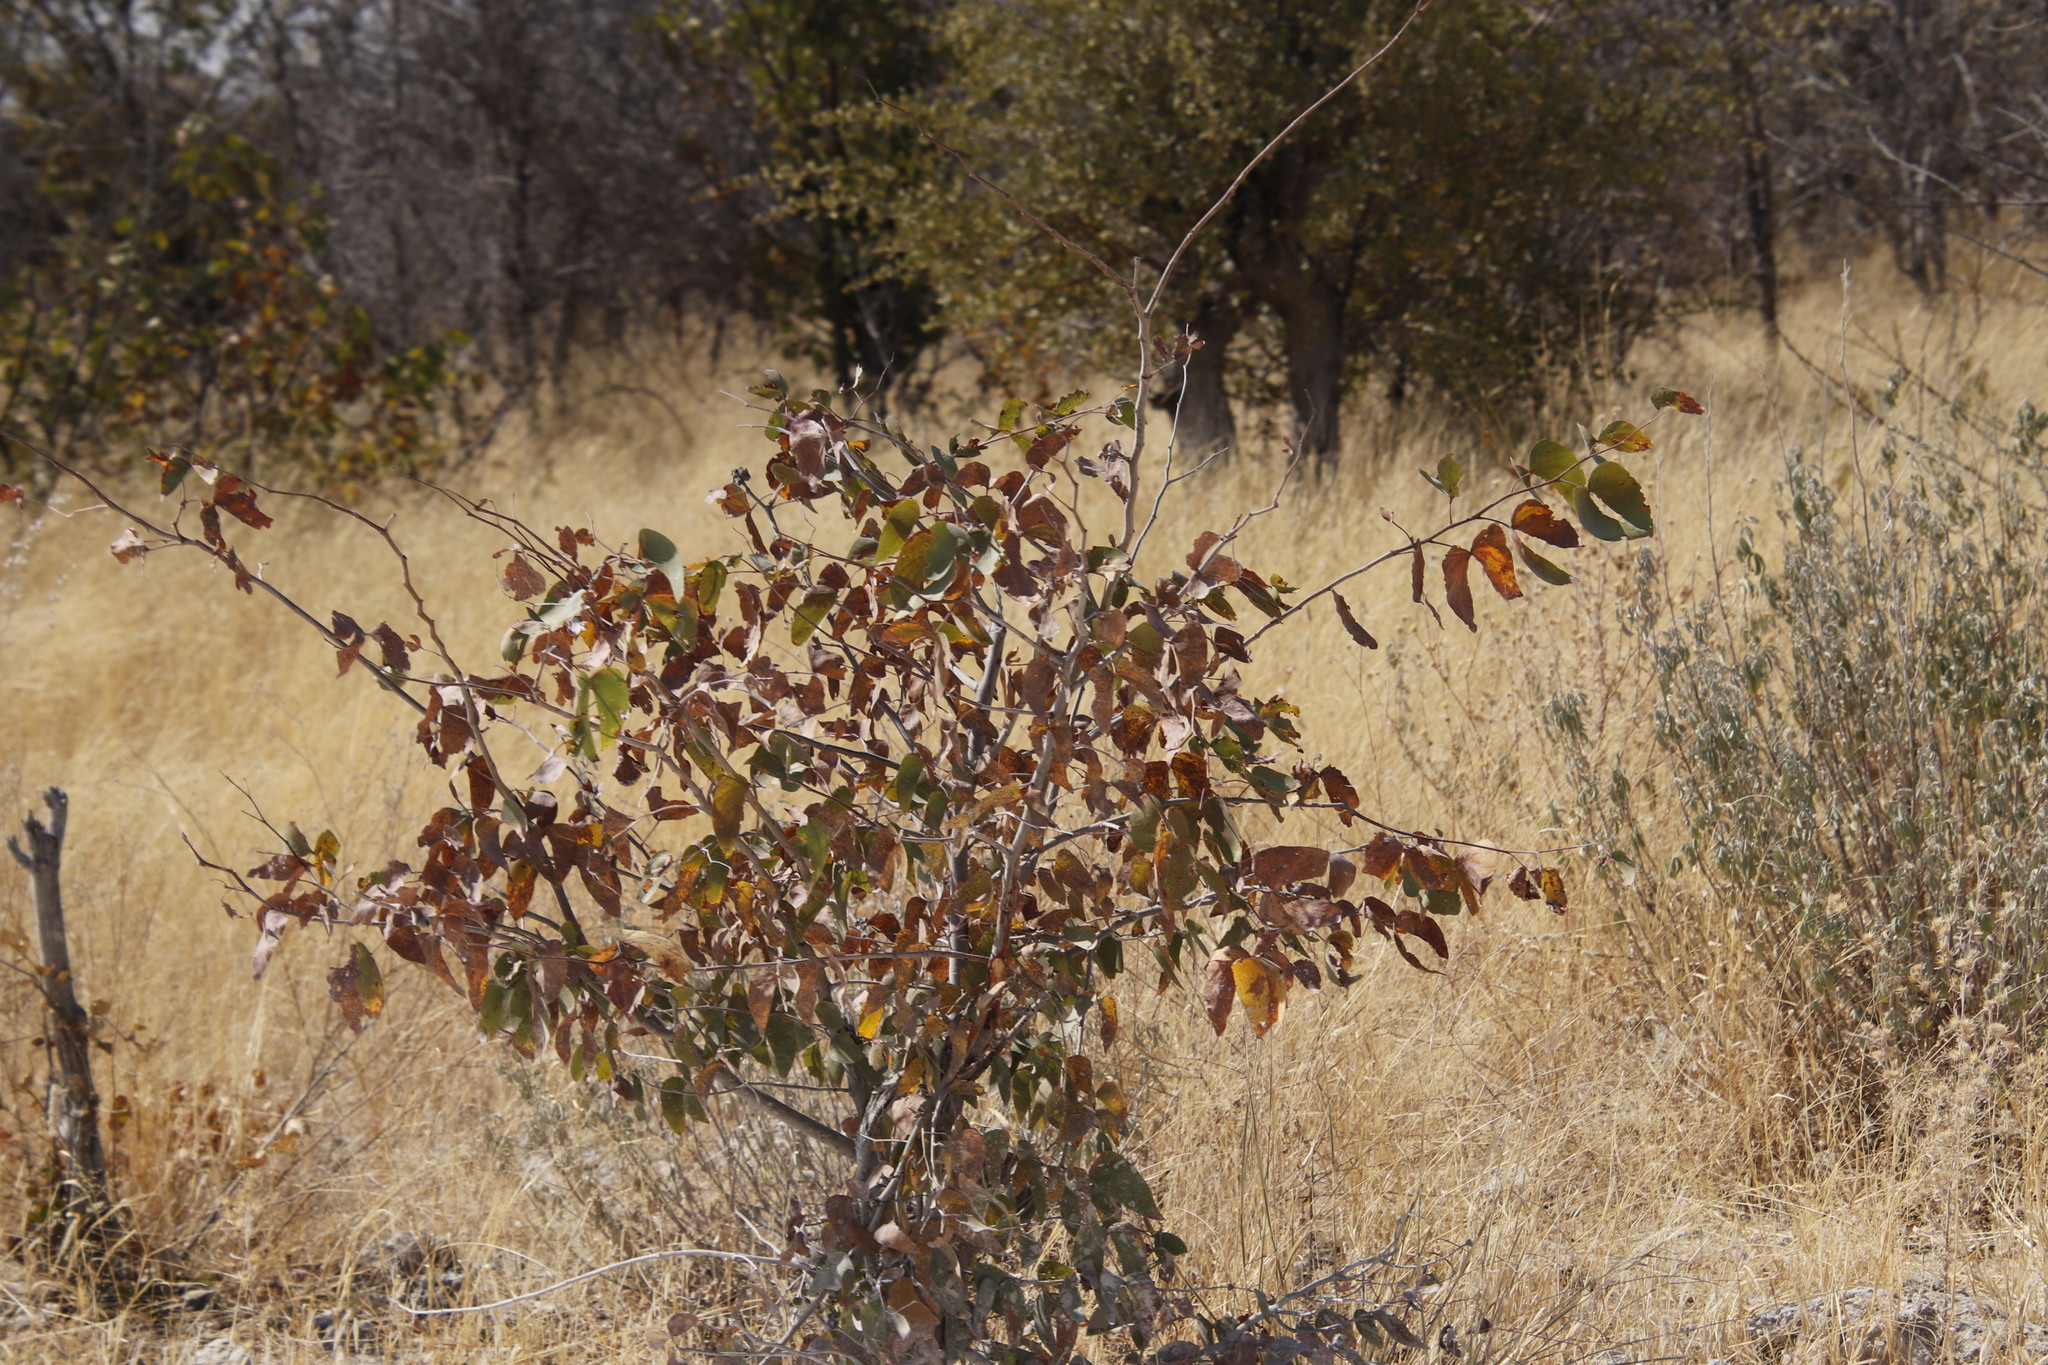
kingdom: Plantae
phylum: Tracheophyta
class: Magnoliopsida
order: Fabales
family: Fabaceae
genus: Colophospermum
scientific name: Colophospermum mopane
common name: Mopane
